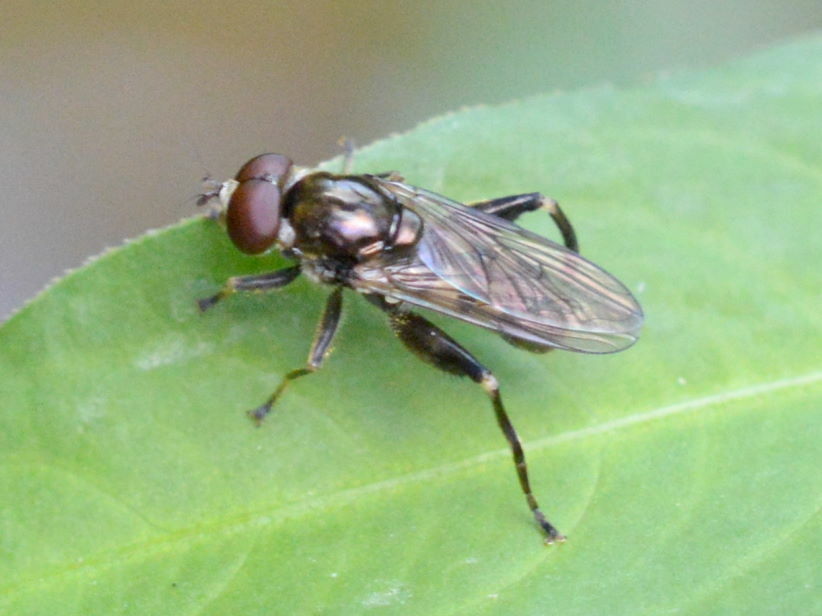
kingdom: Animalia
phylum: Arthropoda
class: Insecta
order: Diptera
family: Syrphidae
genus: Chalcosyrphus
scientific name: Chalcosyrphus nemorum
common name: Dusky-banded forest fly
